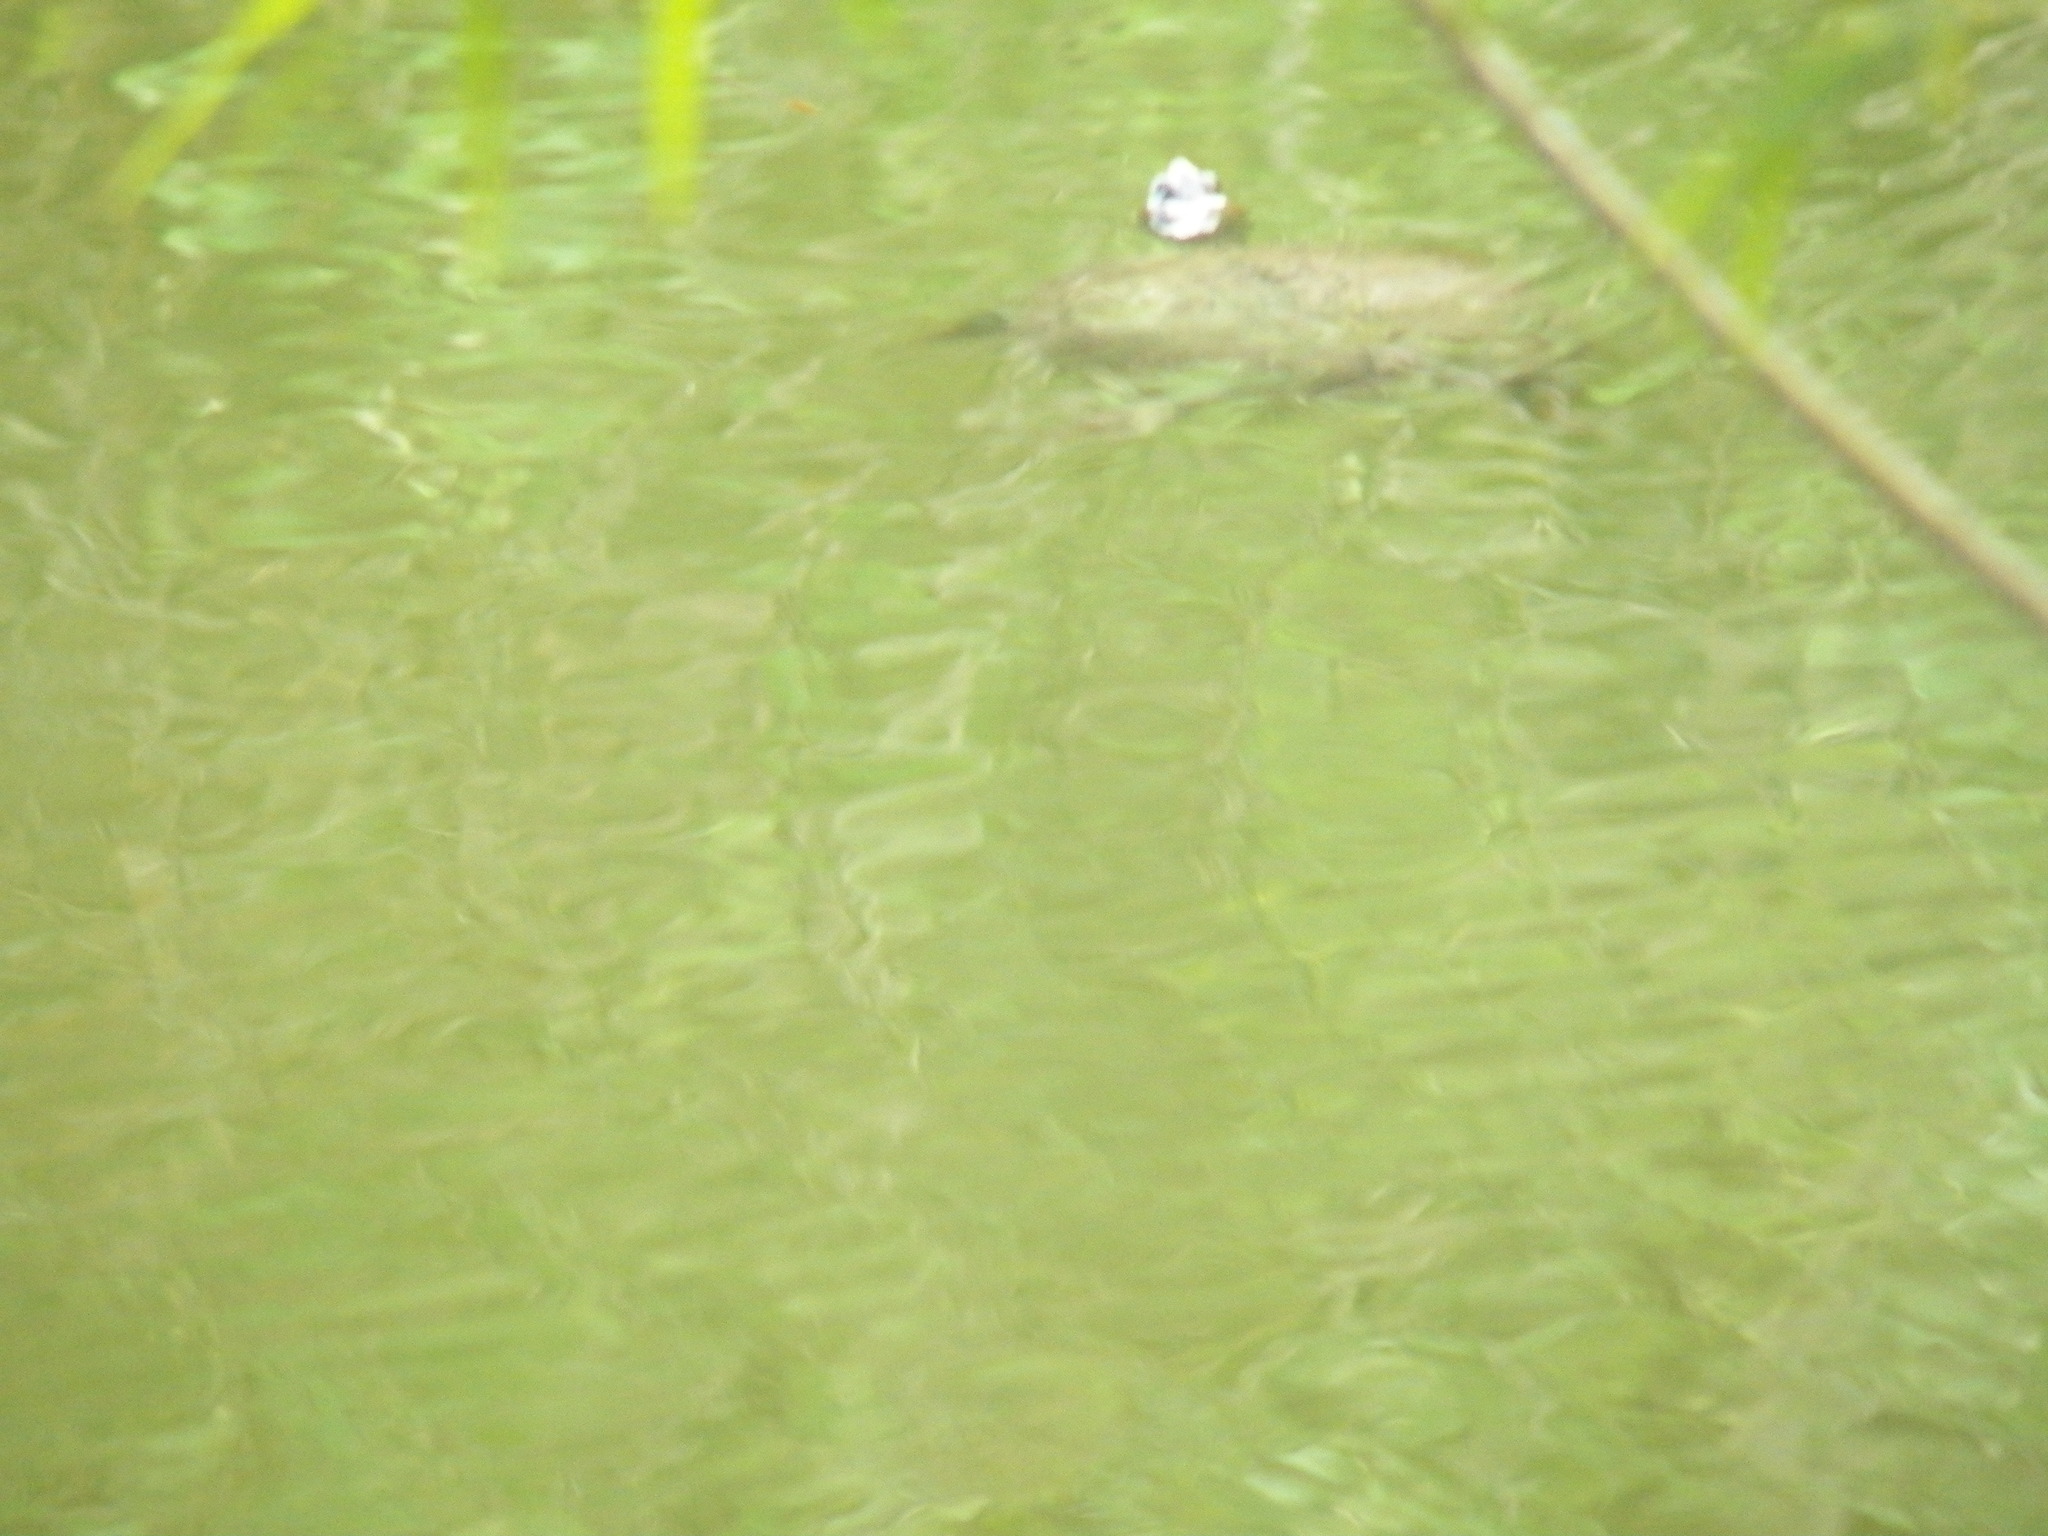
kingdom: Animalia
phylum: Chordata
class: Testudines
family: Emydidae
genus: Trachemys
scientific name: Trachemys scripta
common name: Slider
